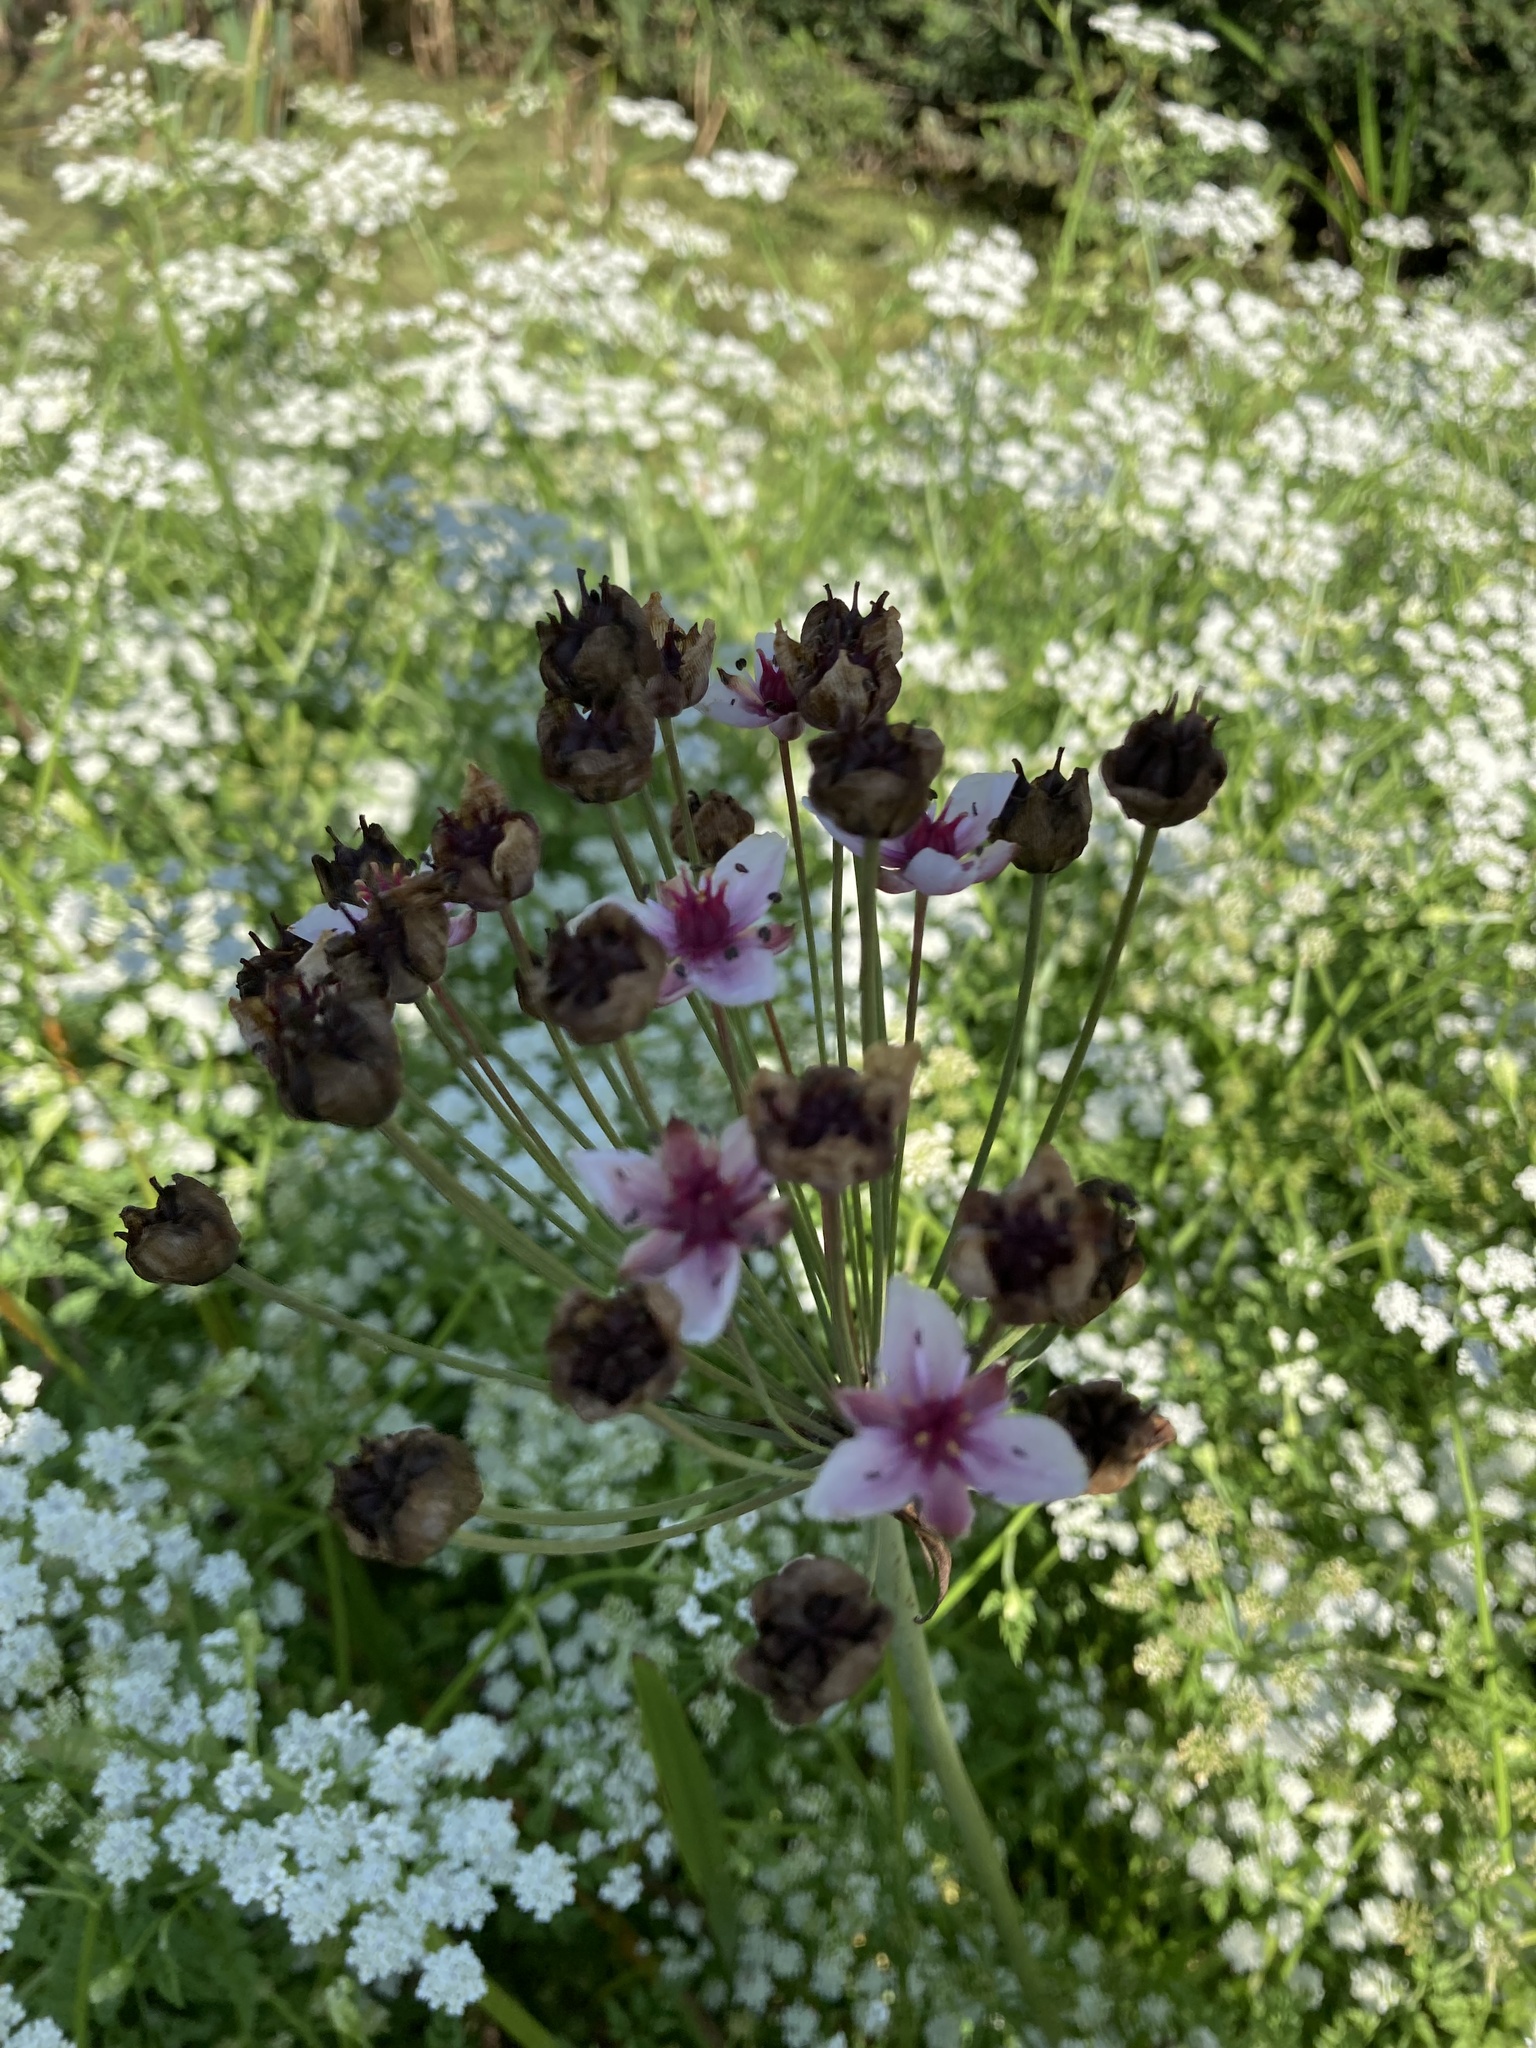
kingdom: Plantae
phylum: Tracheophyta
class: Liliopsida
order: Alismatales
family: Butomaceae
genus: Butomus
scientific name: Butomus umbellatus
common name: Flowering-rush
